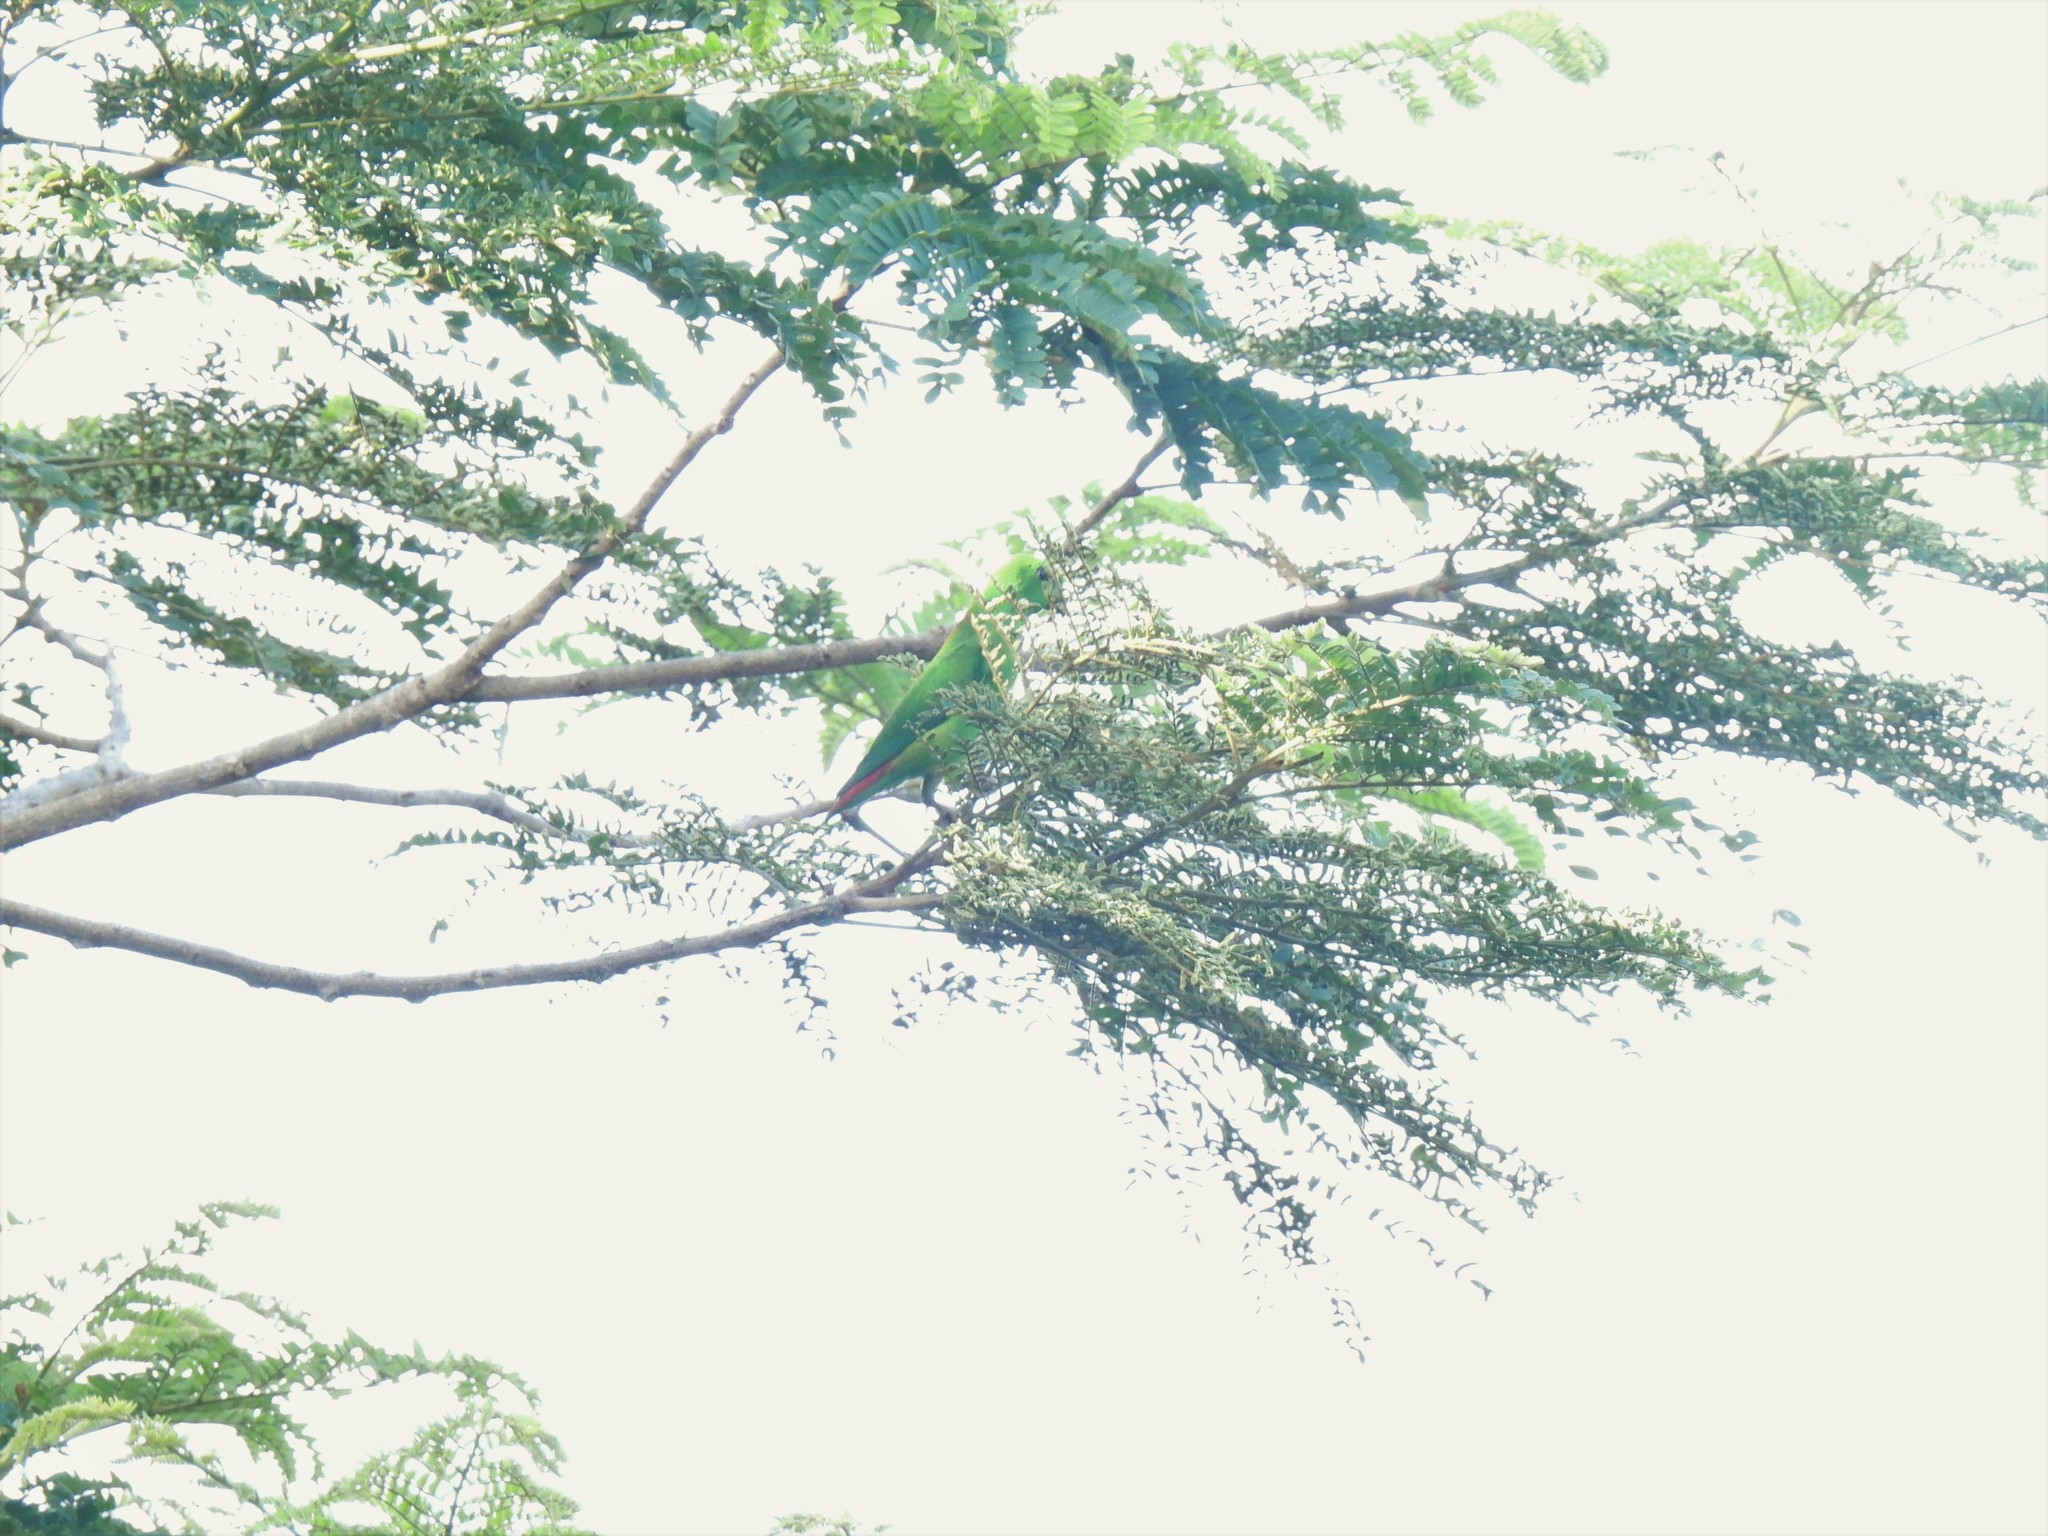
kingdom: Animalia
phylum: Chordata
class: Aves
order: Psittaciformes
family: Psittacidae
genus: Loriculus
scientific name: Loriculus galgulus
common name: Blue-crowned hanging parrot
